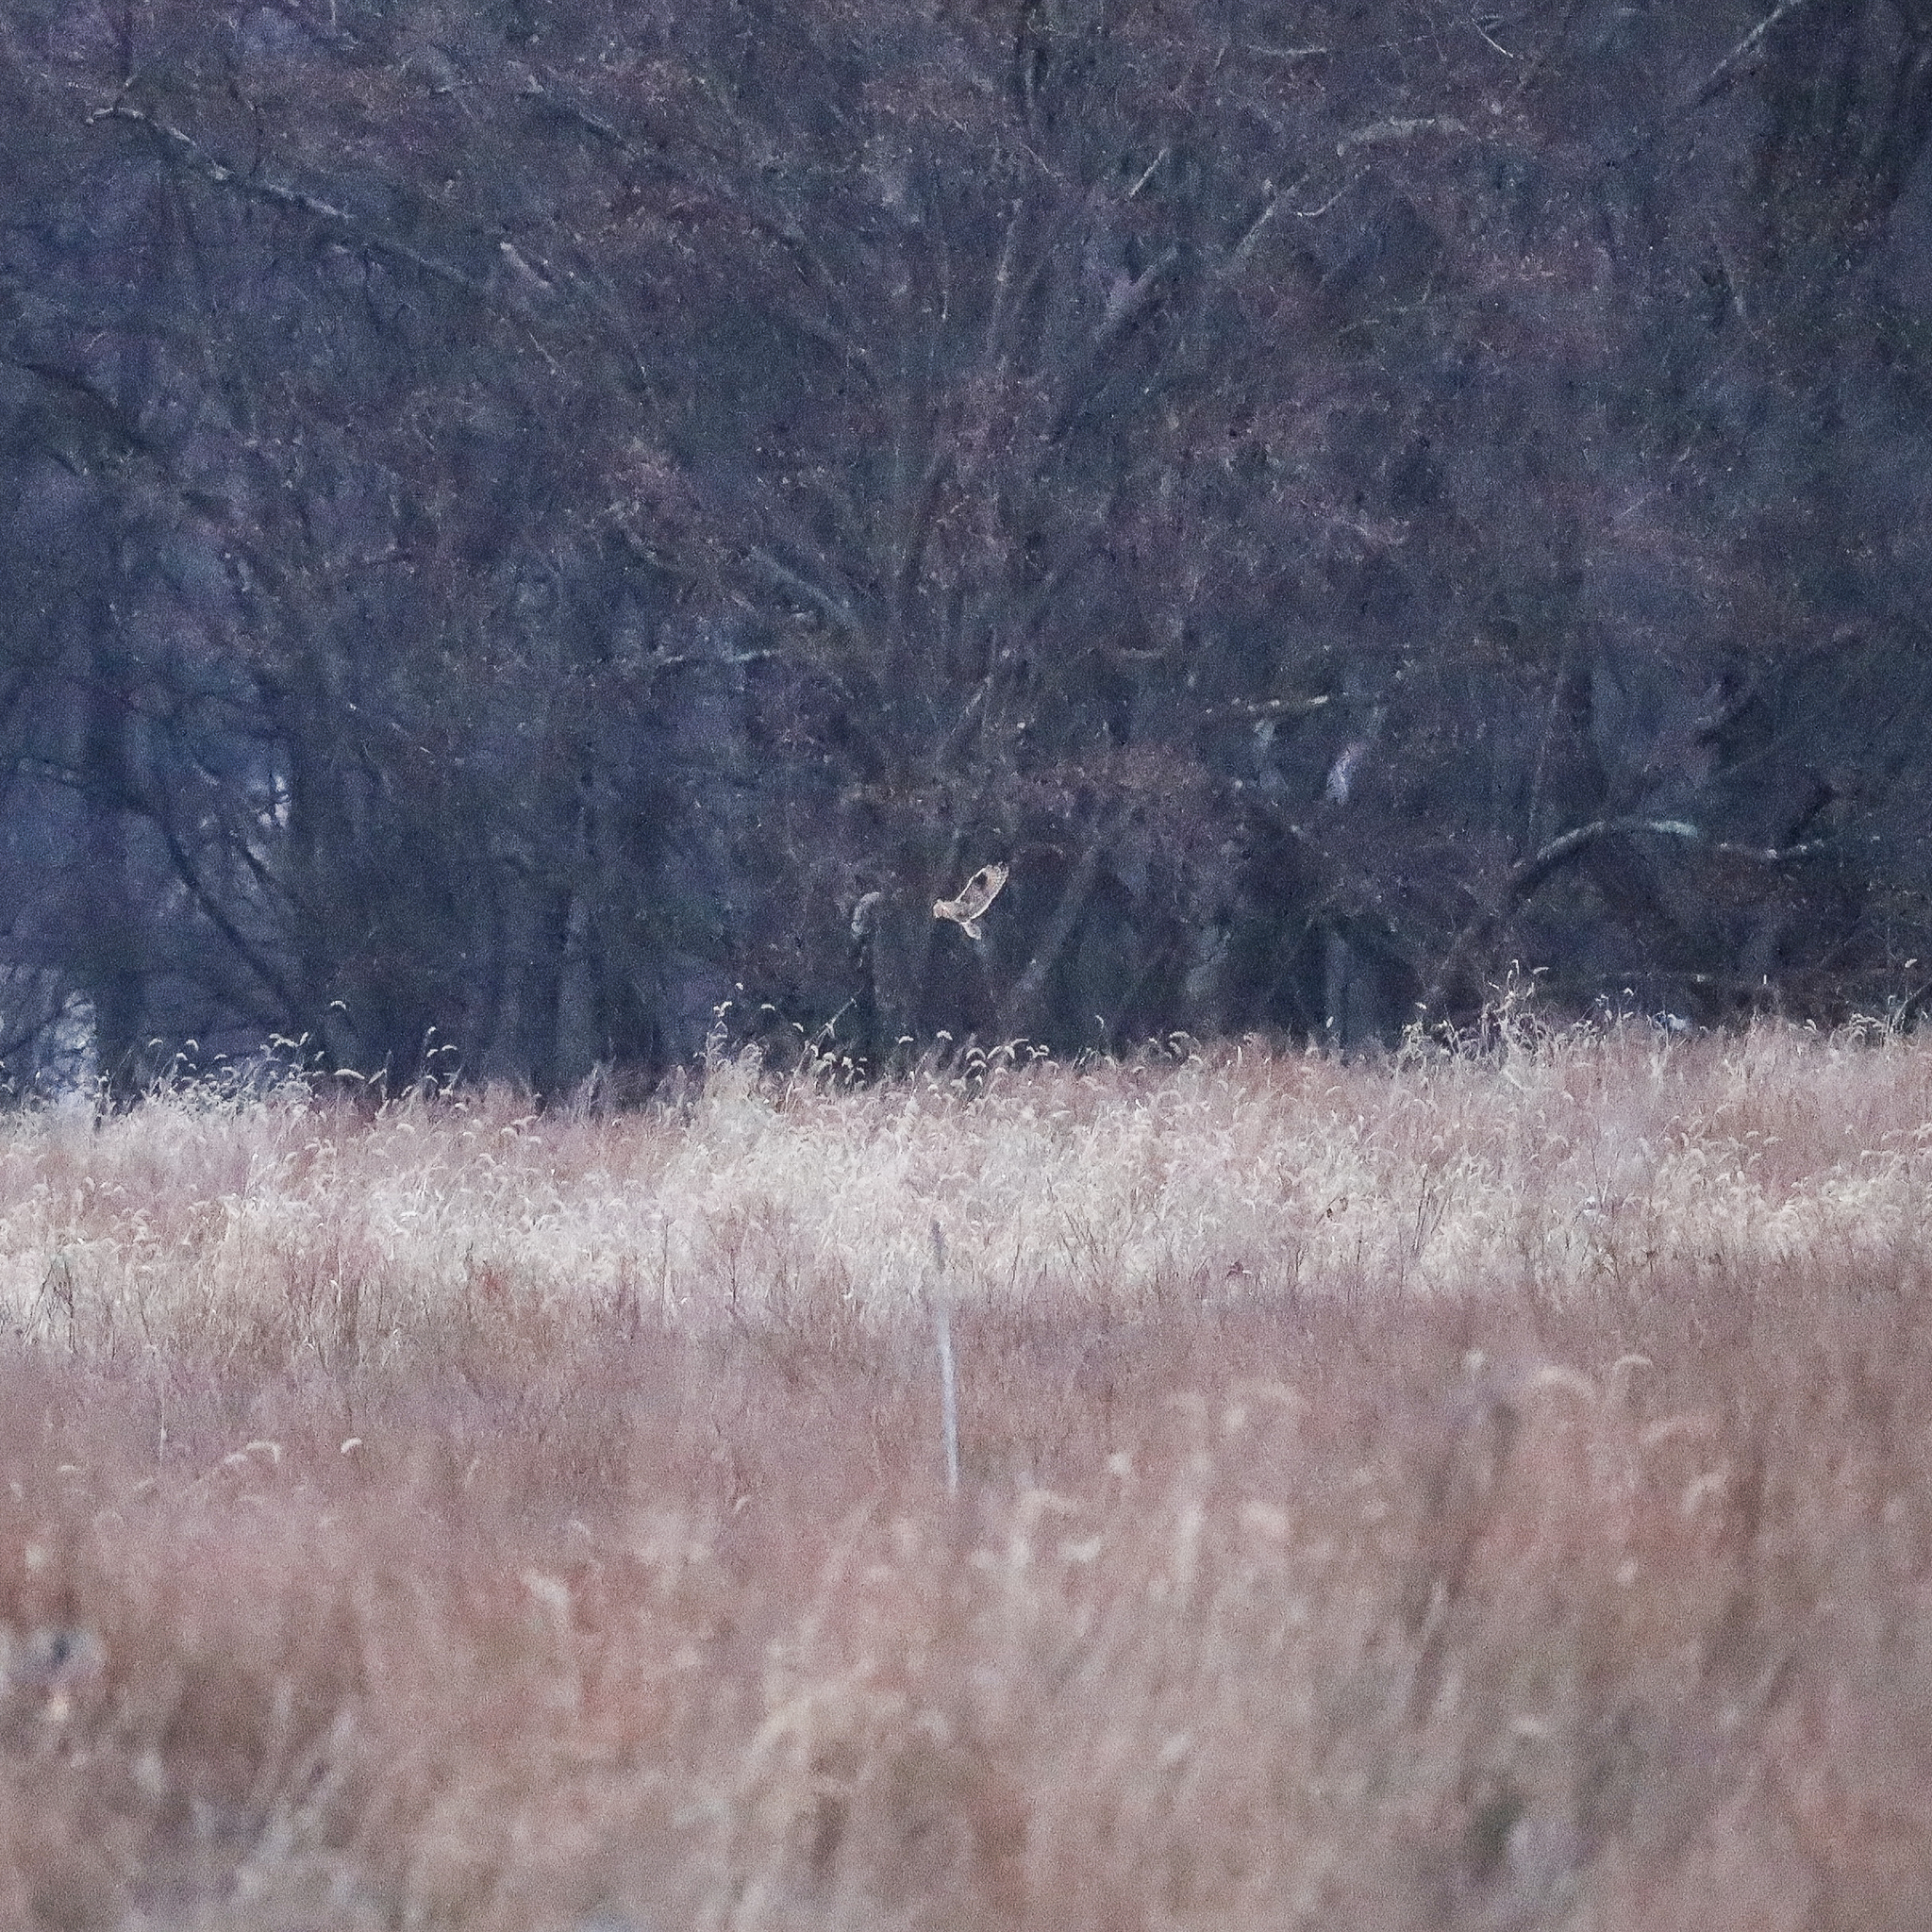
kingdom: Animalia
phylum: Chordata
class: Aves
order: Strigiformes
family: Strigidae
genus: Asio
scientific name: Asio flammeus
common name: Short-eared owl
